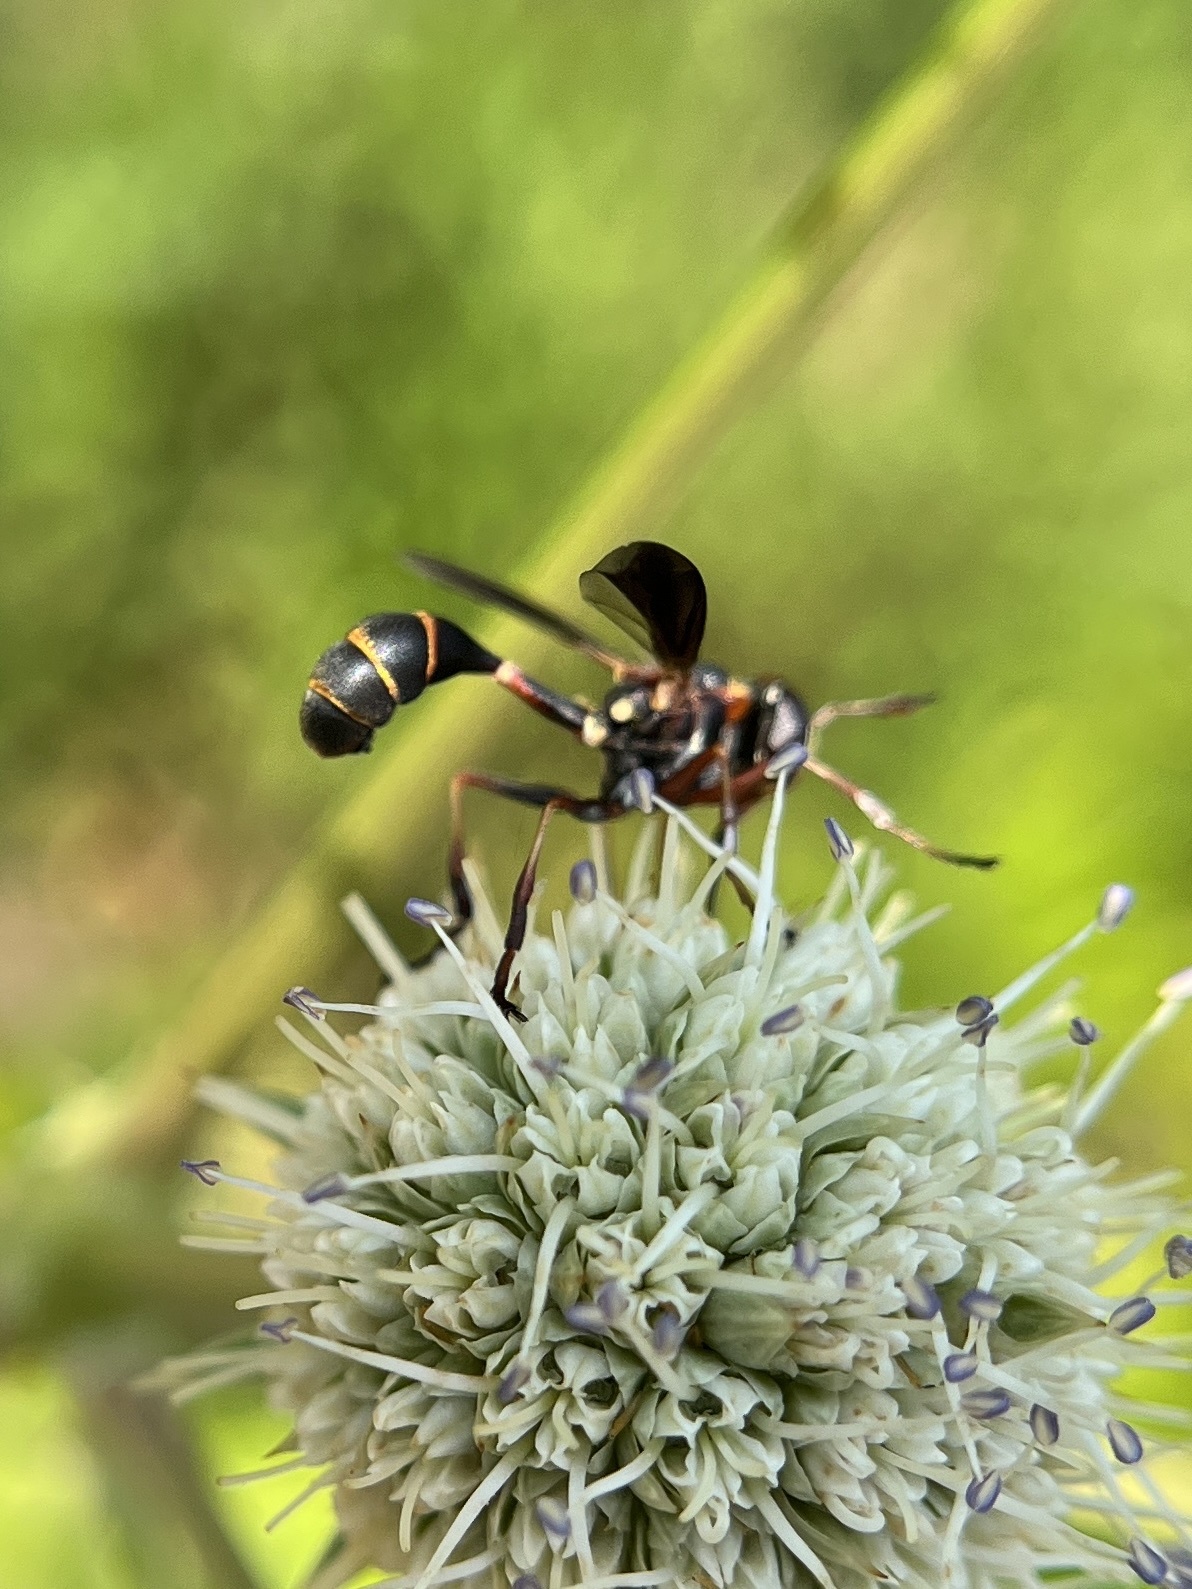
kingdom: Animalia
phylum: Arthropoda
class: Insecta
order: Diptera
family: Conopidae
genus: Physocephala
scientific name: Physocephala sagittaria
